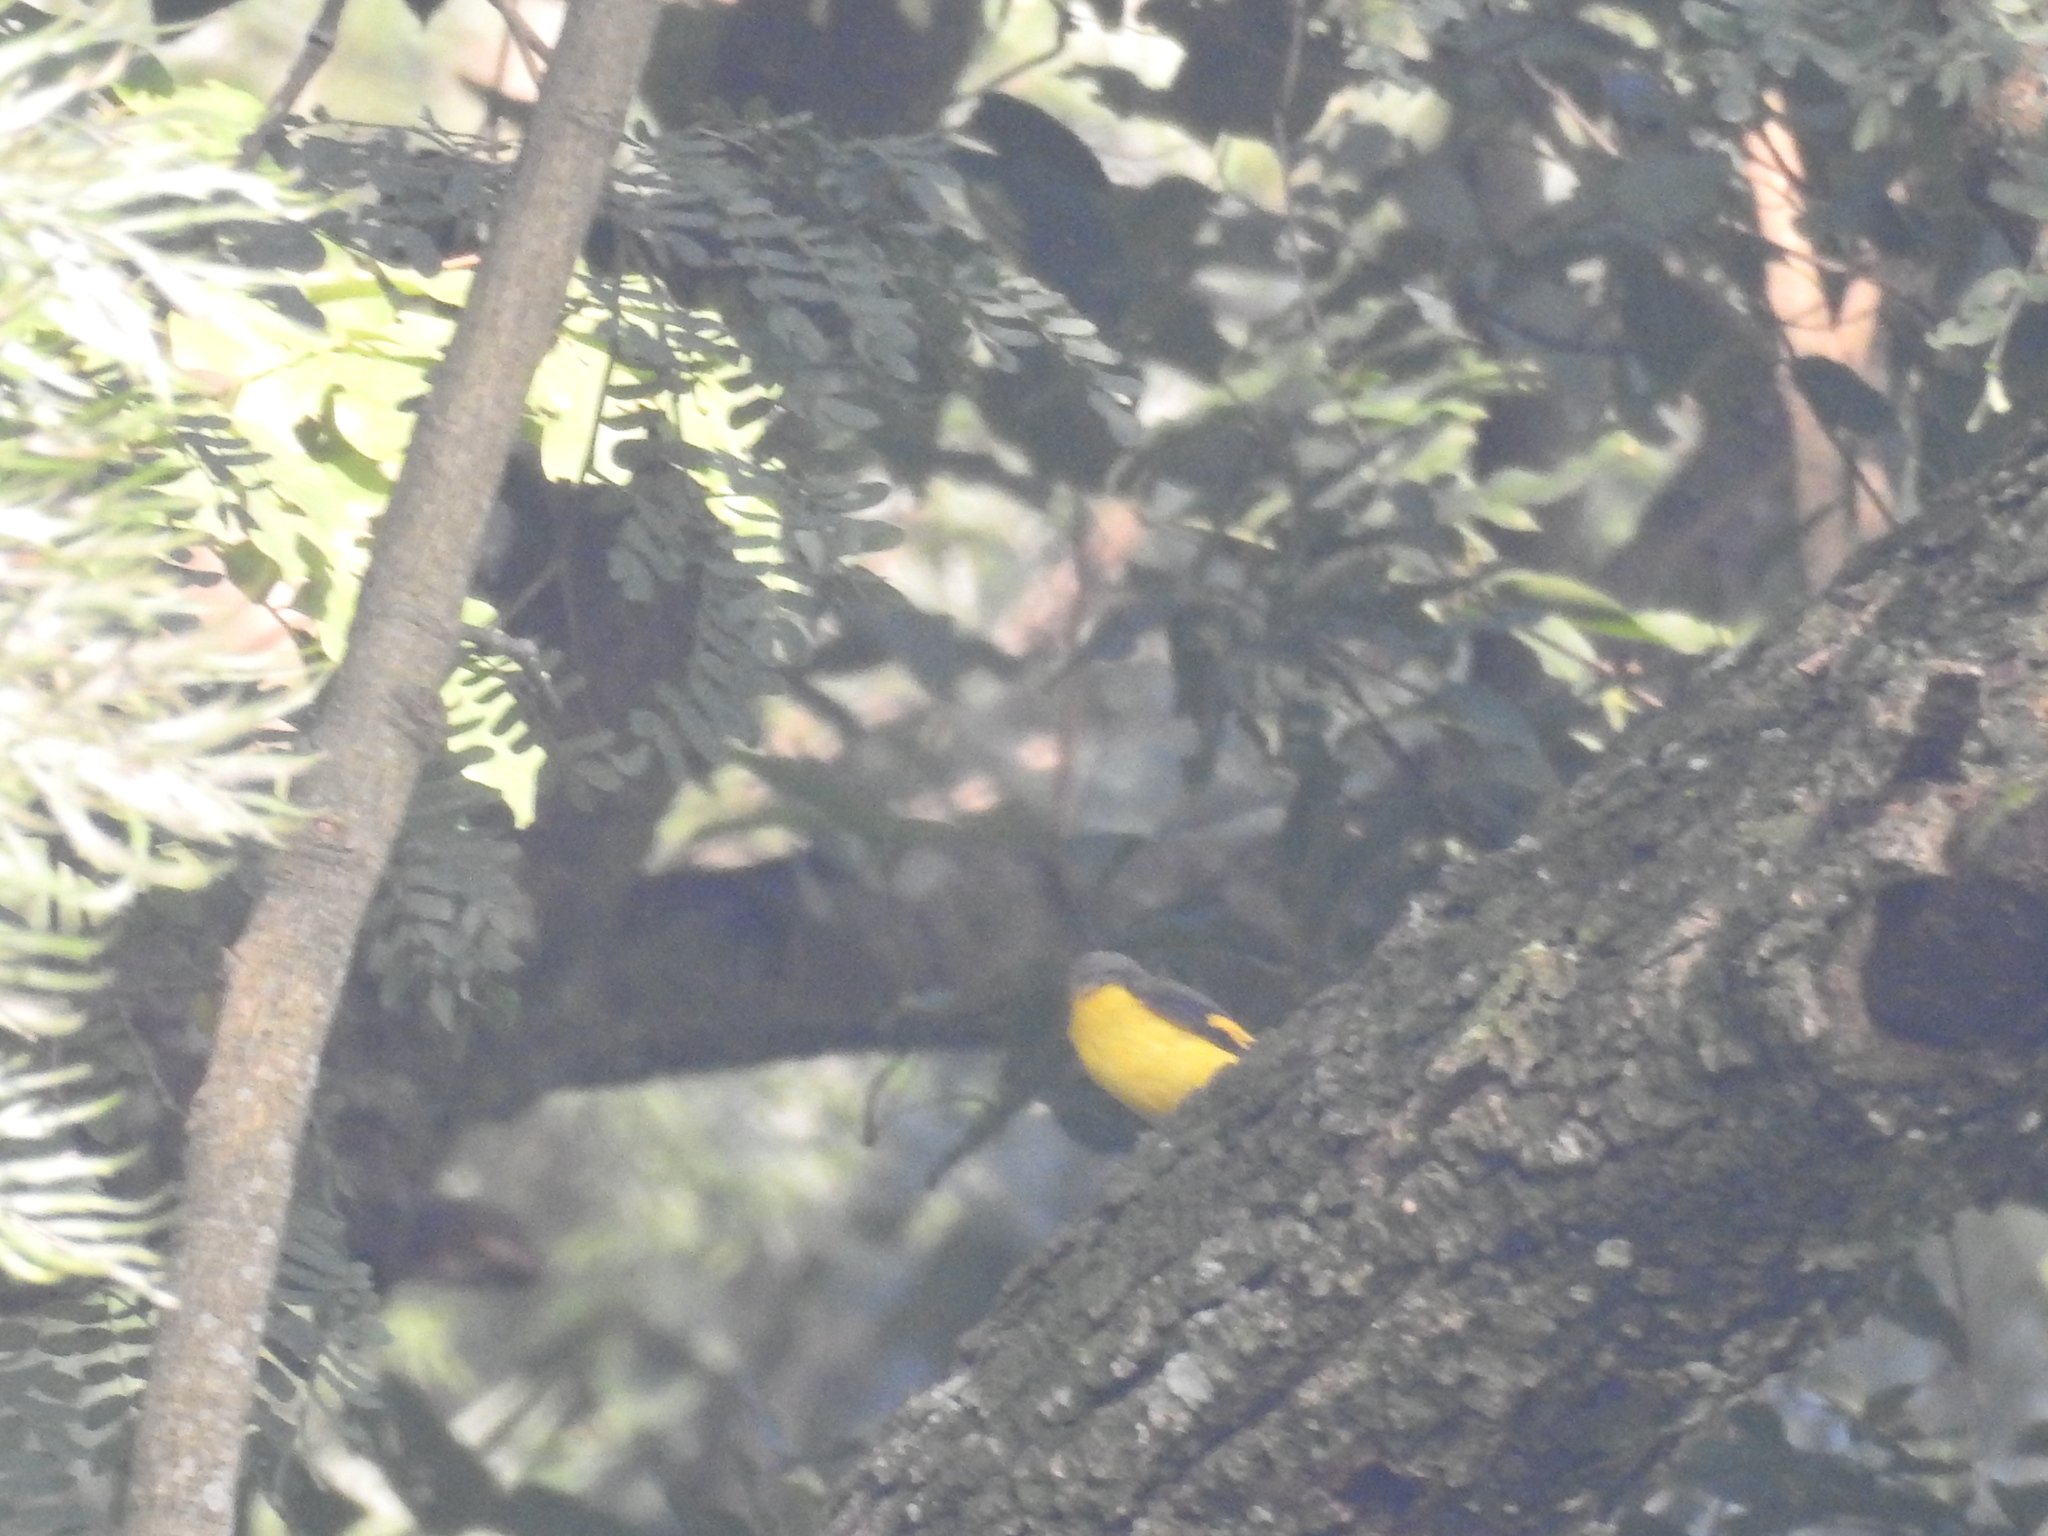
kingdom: Animalia
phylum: Chordata
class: Aves
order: Passeriformes
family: Campephagidae
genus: Pericrocotus
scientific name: Pericrocotus speciosus
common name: Scarlet minivet
